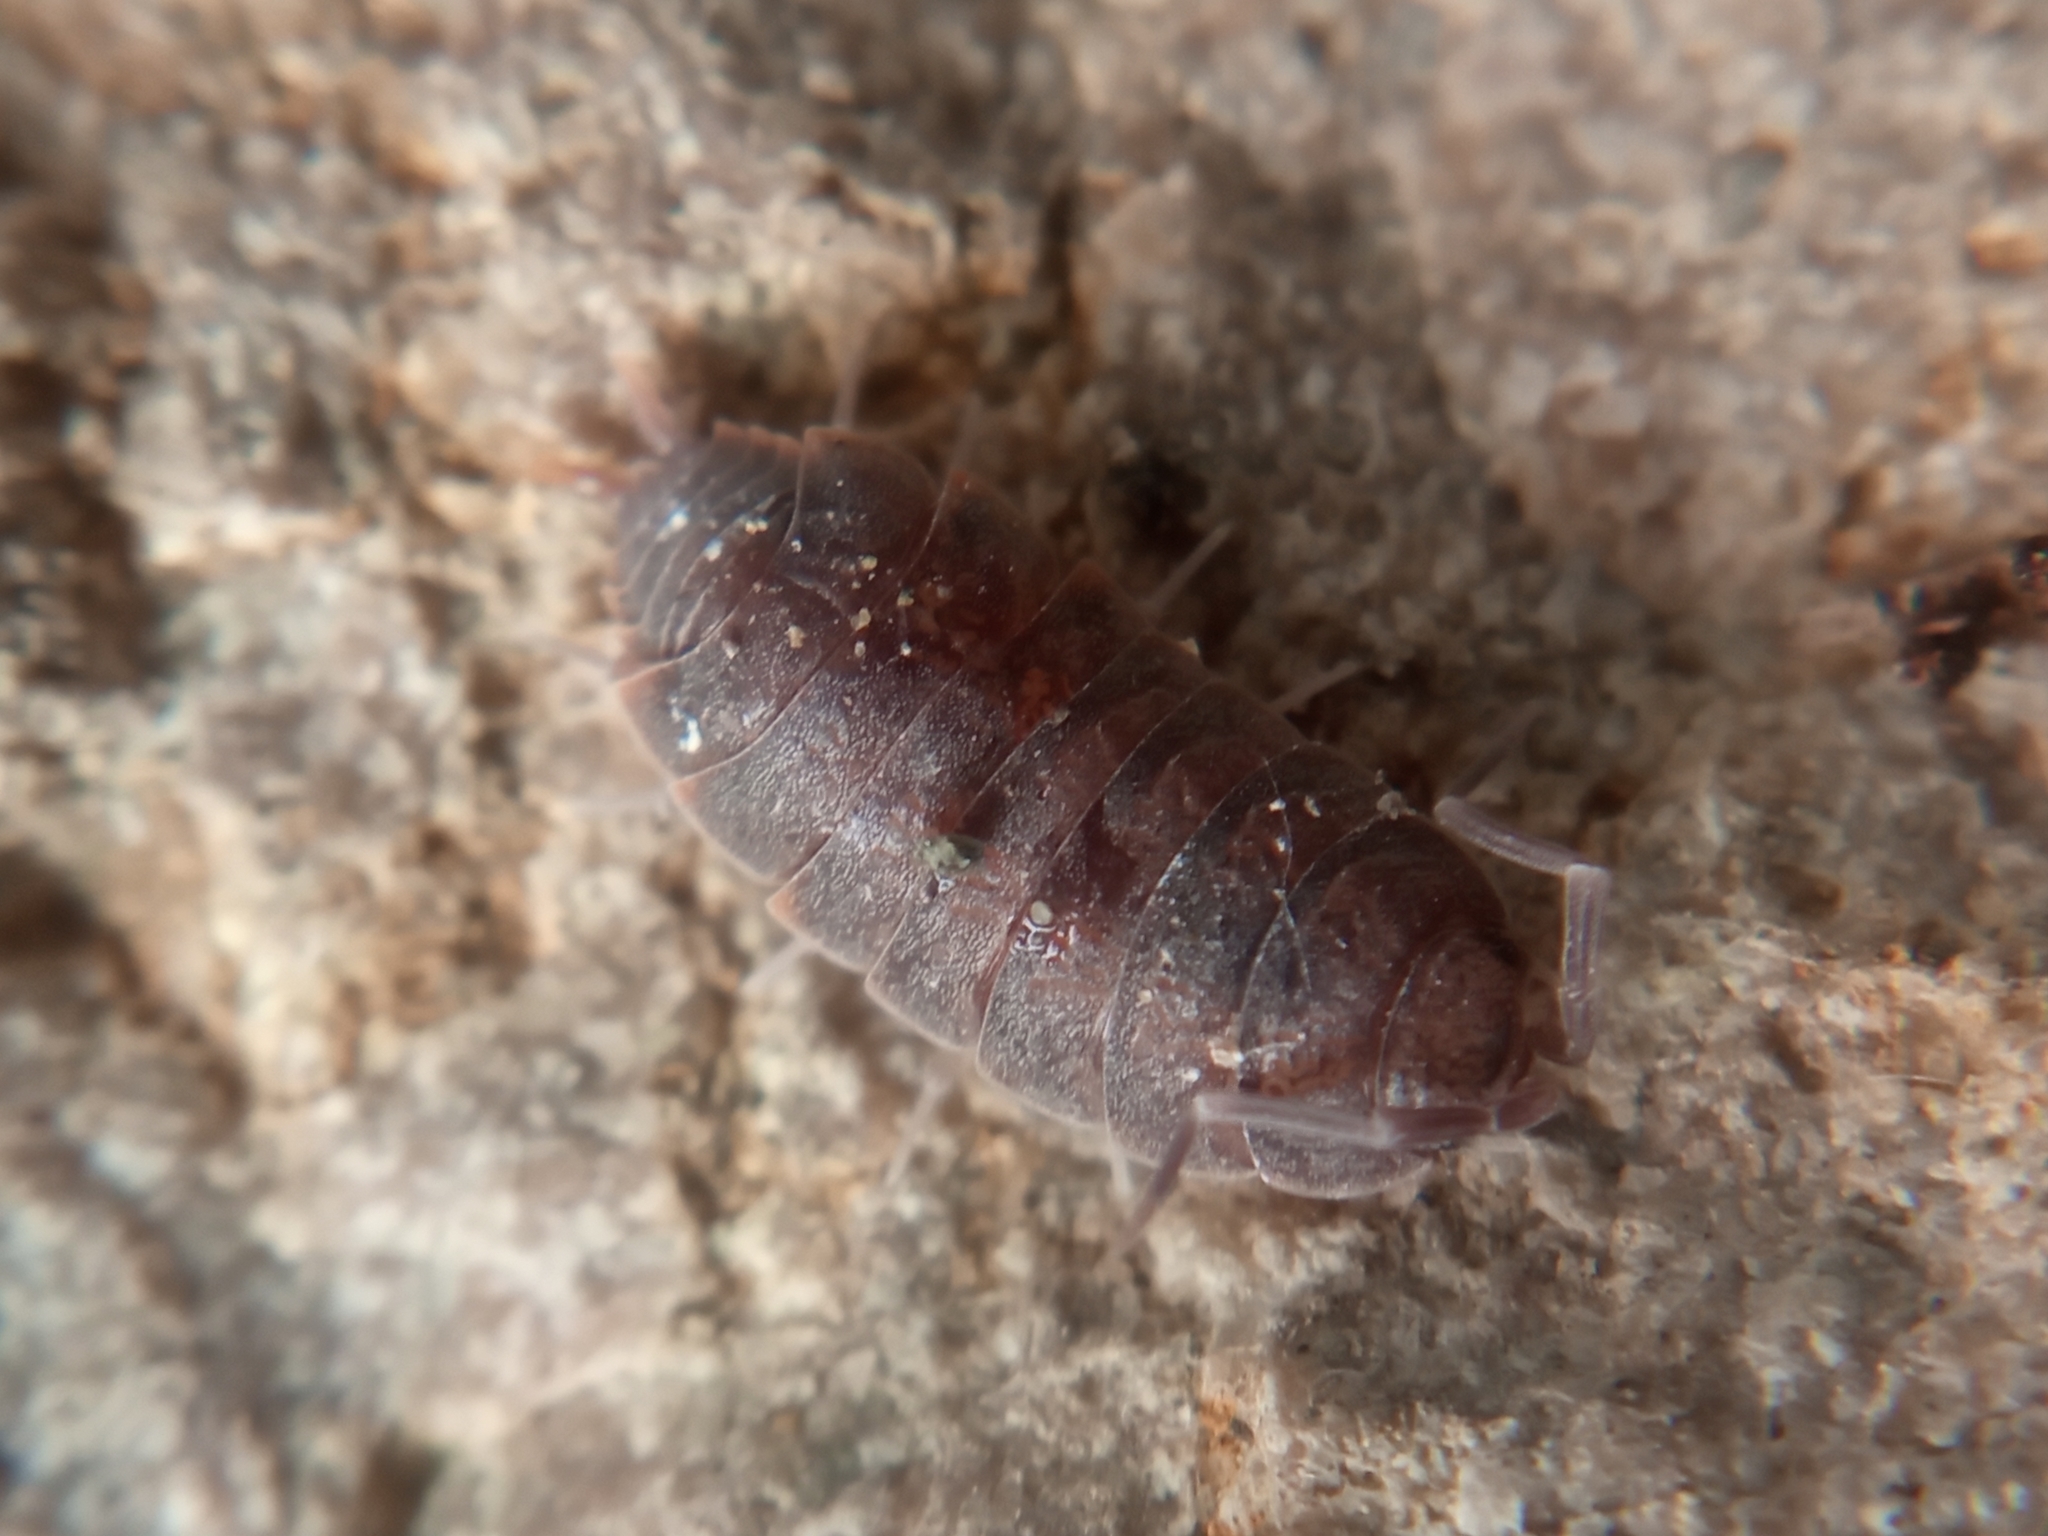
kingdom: Animalia
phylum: Arthropoda
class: Malacostraca
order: Isopoda
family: Porcellionidae
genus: Porcellionides
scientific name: Porcellionides pruinosus
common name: Plum woodlouse
